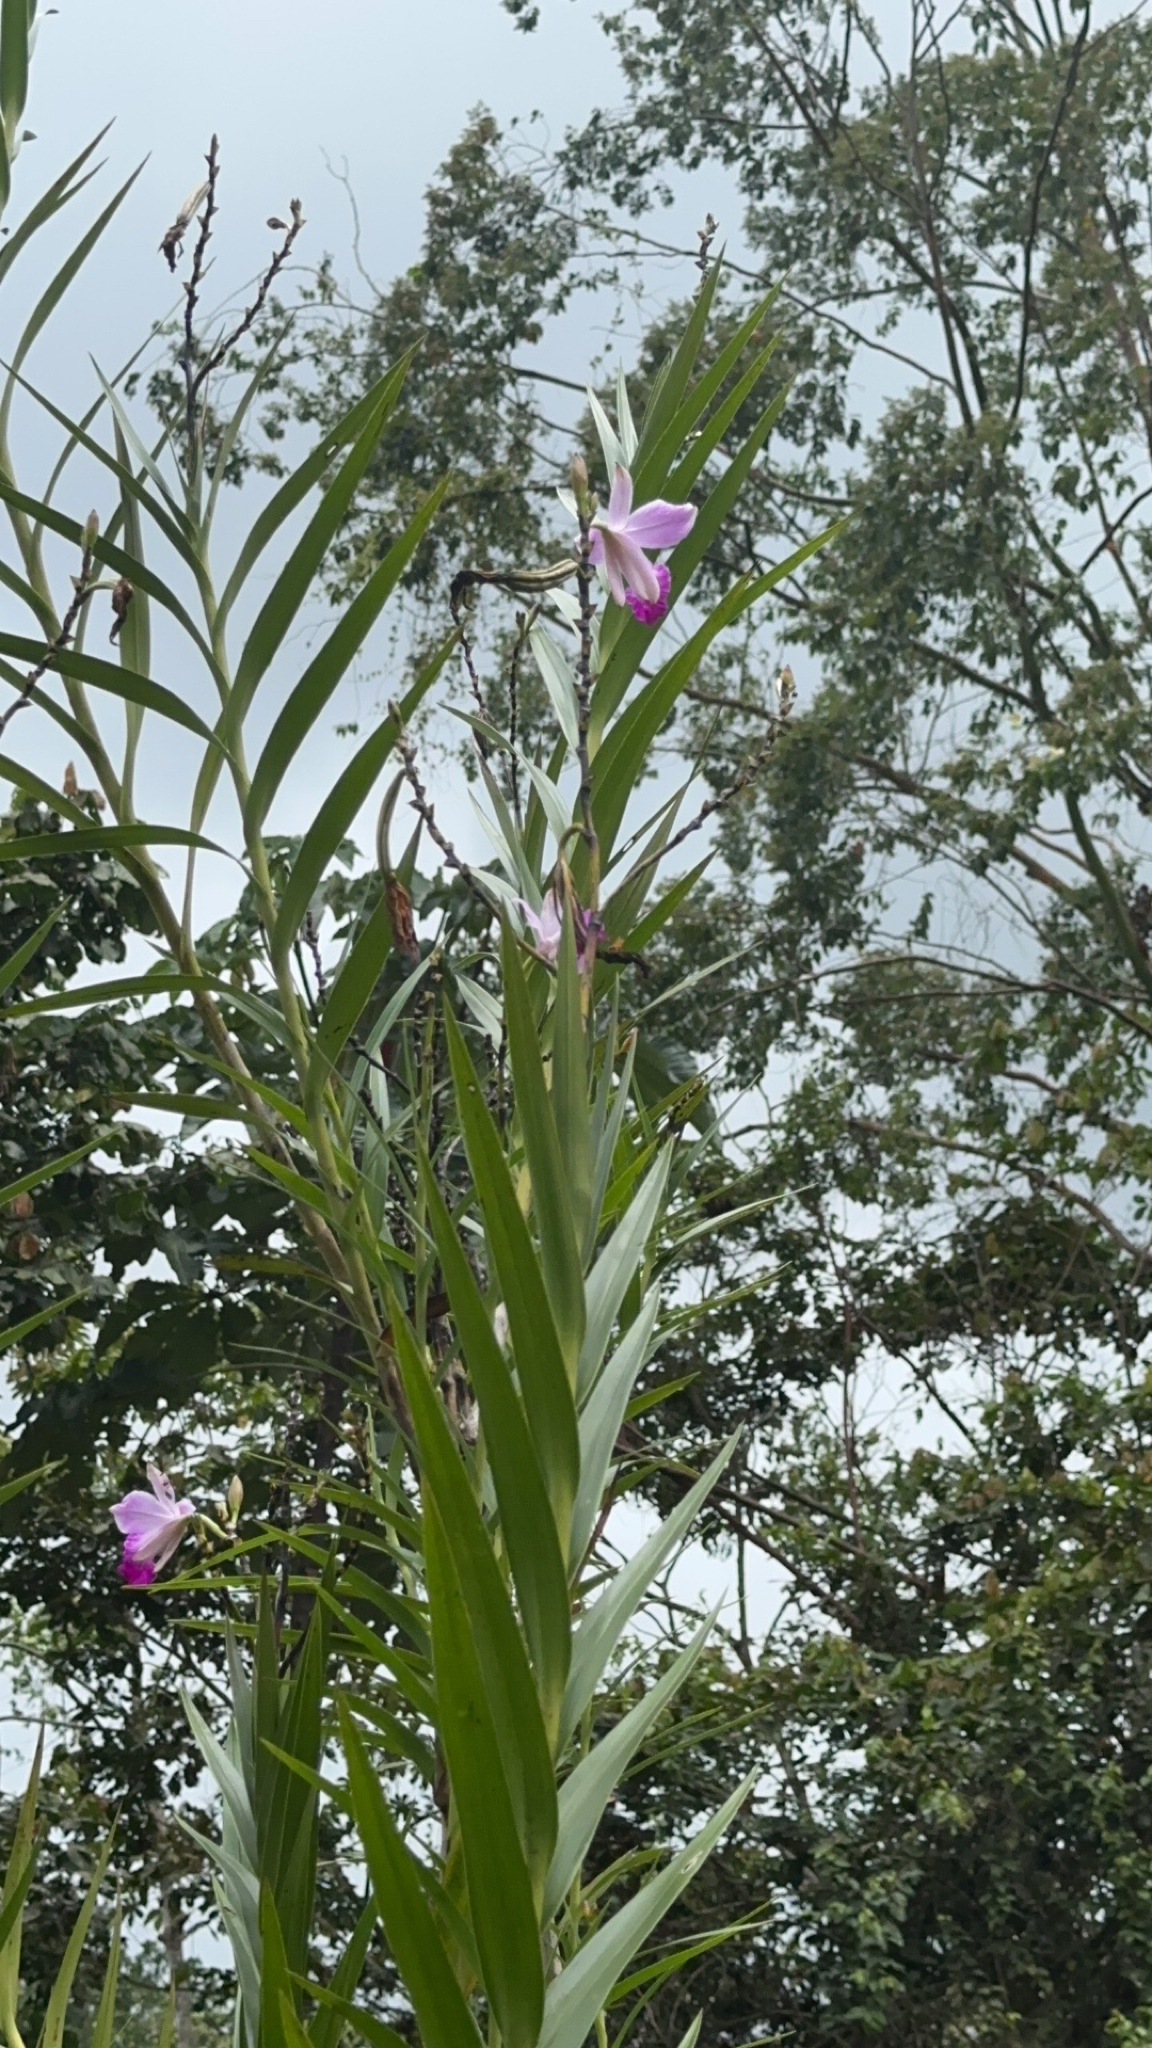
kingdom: Plantae
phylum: Tracheophyta
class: Liliopsida
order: Asparagales
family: Orchidaceae
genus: Arundina
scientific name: Arundina graminifolia
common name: Bamboo orchid
